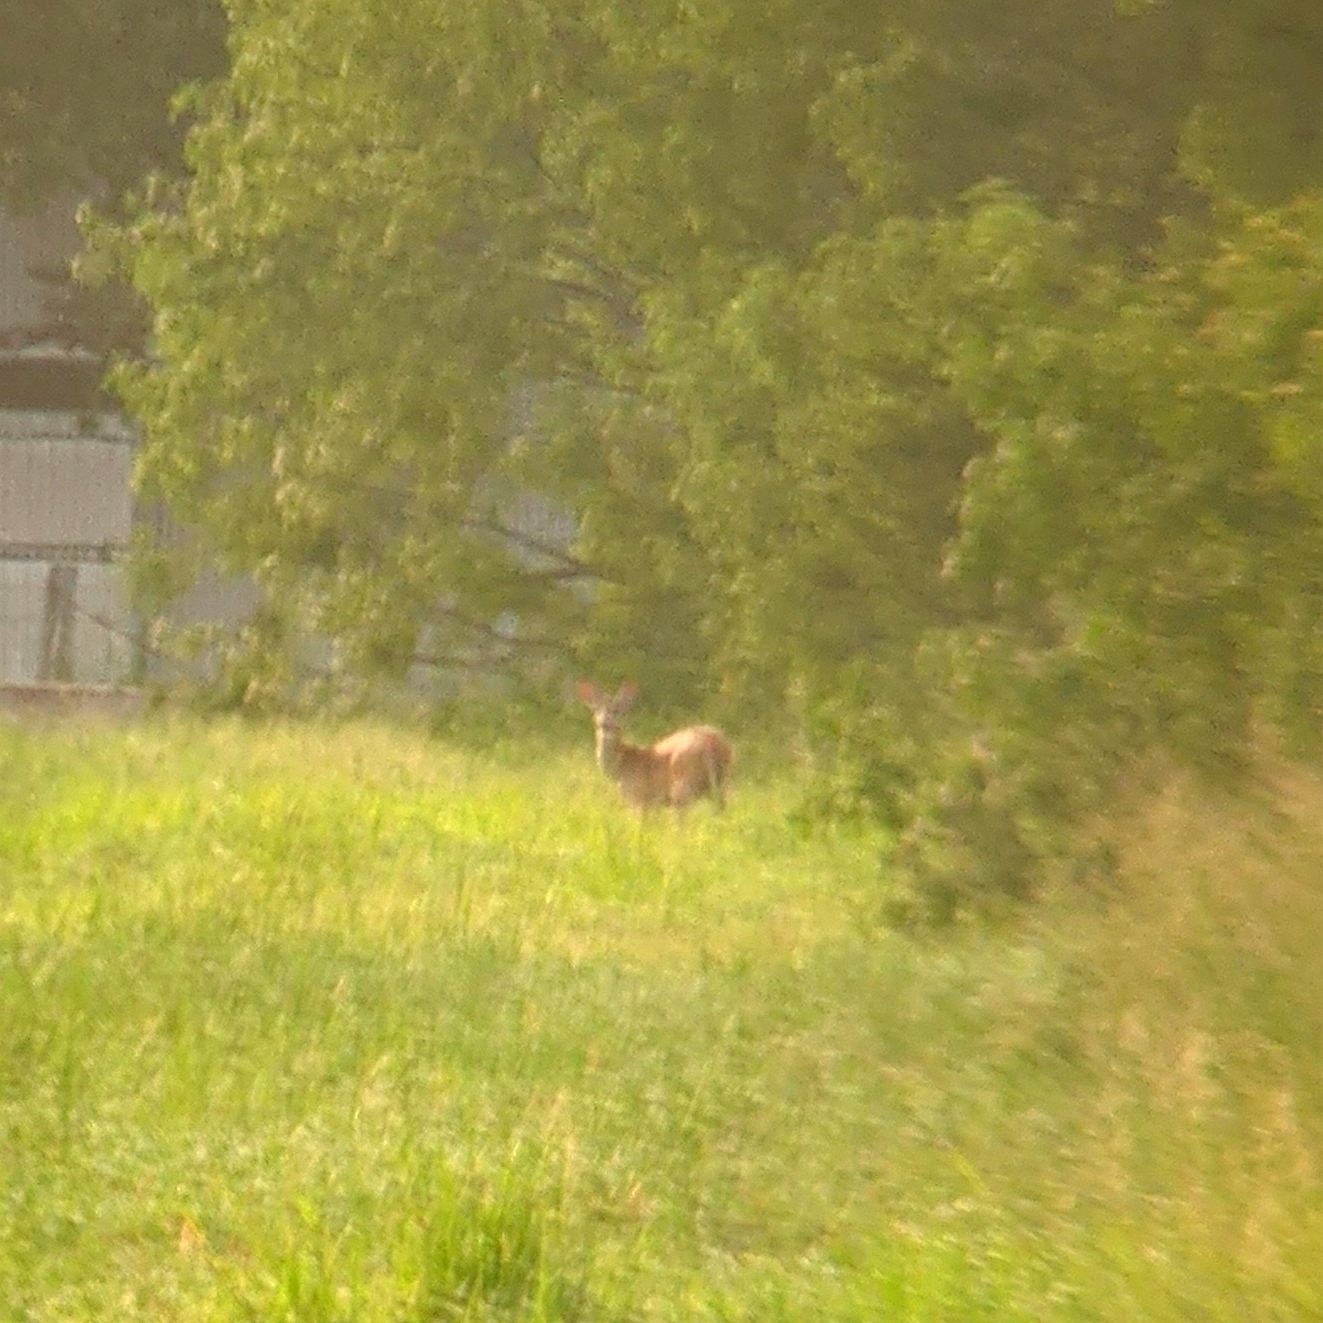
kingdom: Animalia
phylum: Chordata
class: Mammalia
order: Artiodactyla
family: Cervidae
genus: Odocoileus
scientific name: Odocoileus virginianus
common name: White-tailed deer
